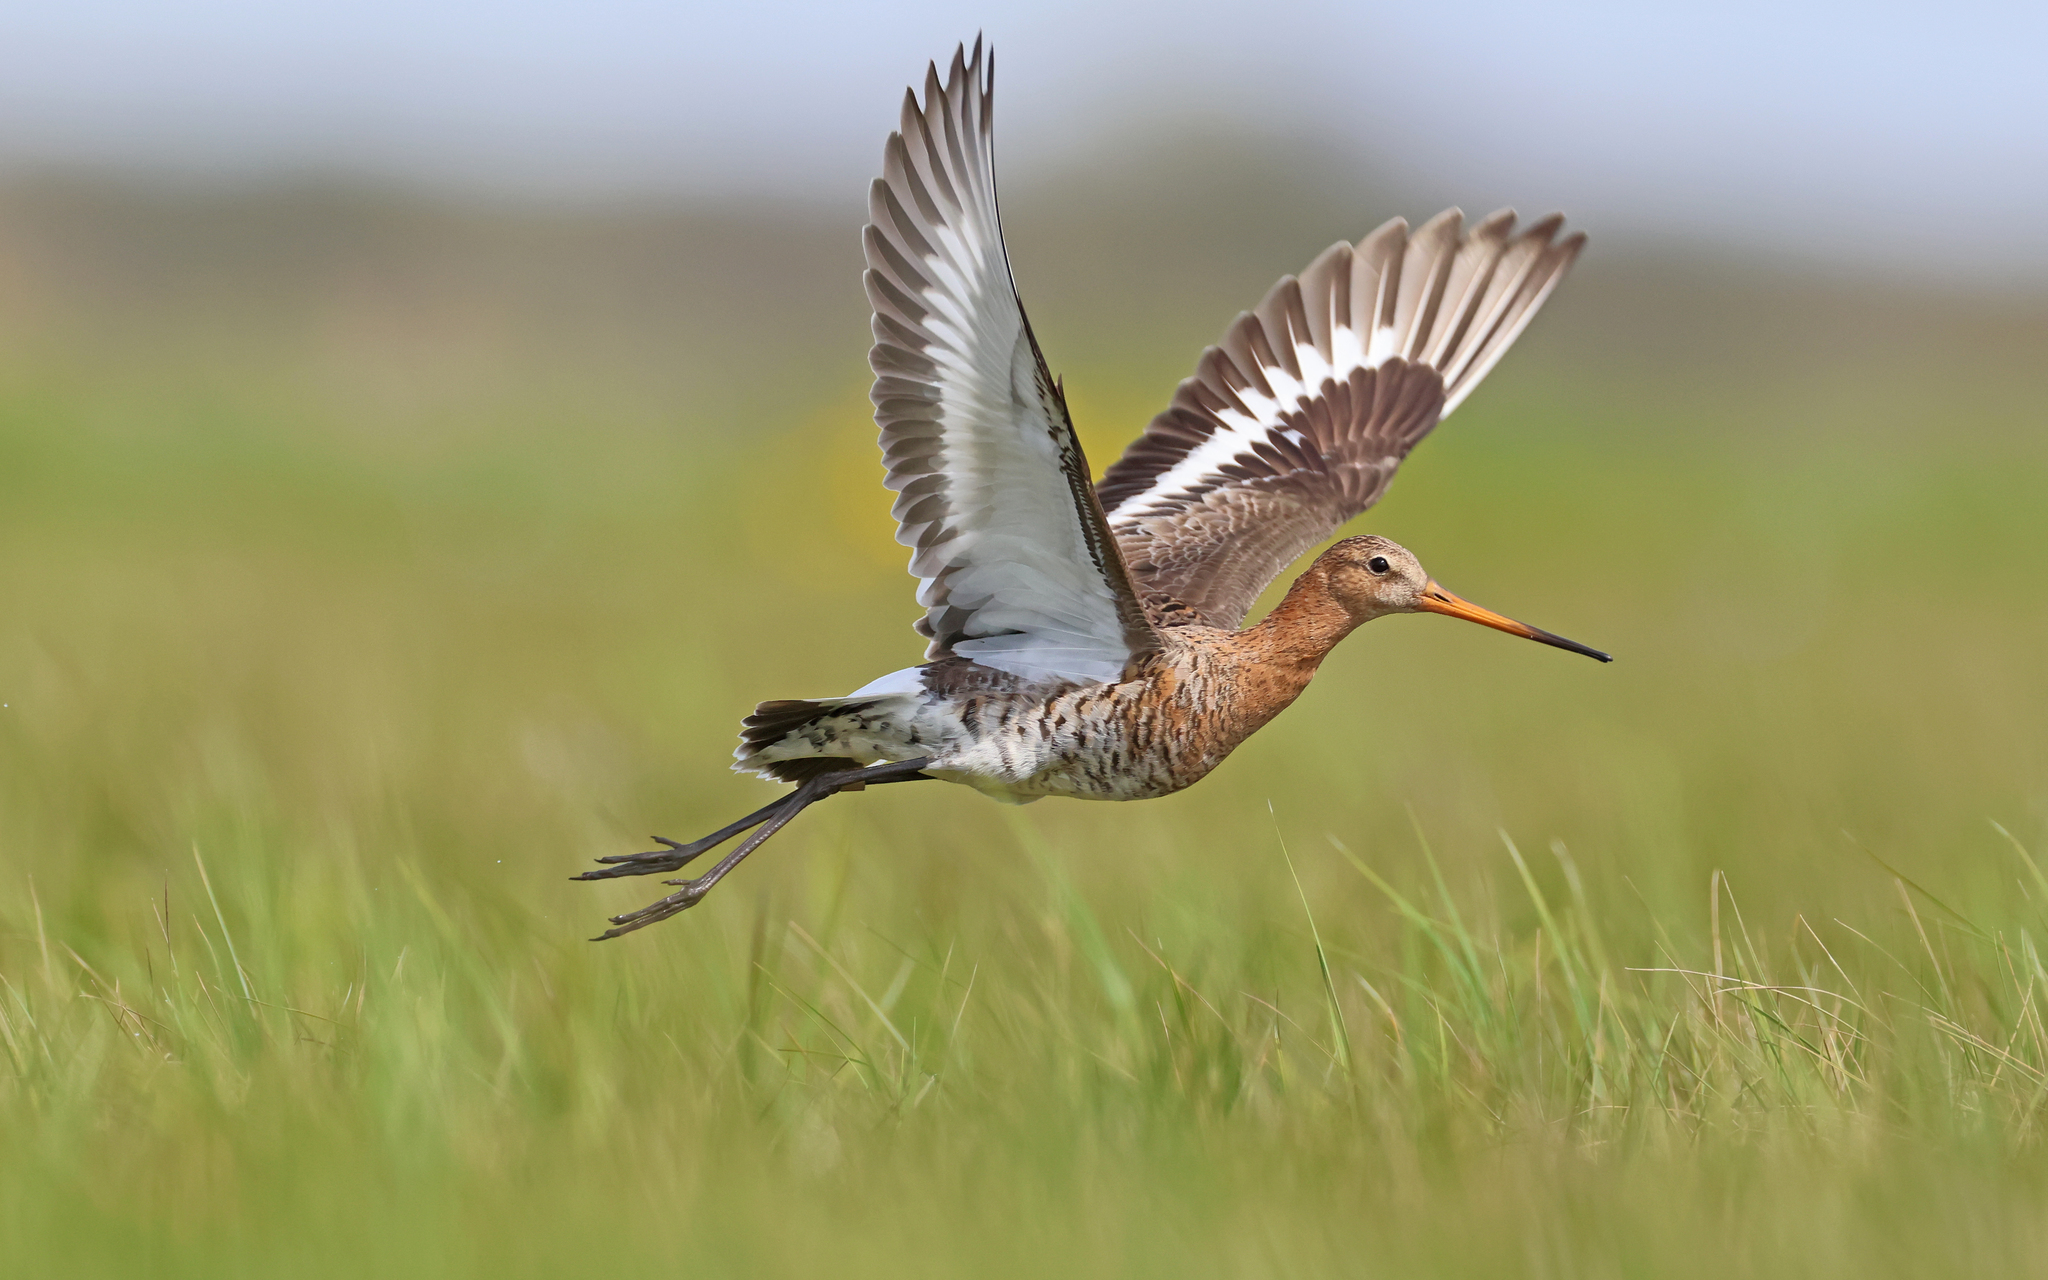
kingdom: Animalia
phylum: Chordata
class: Aves
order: Charadriiformes
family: Scolopacidae
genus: Limosa
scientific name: Limosa limosa
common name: Black-tailed godwit
